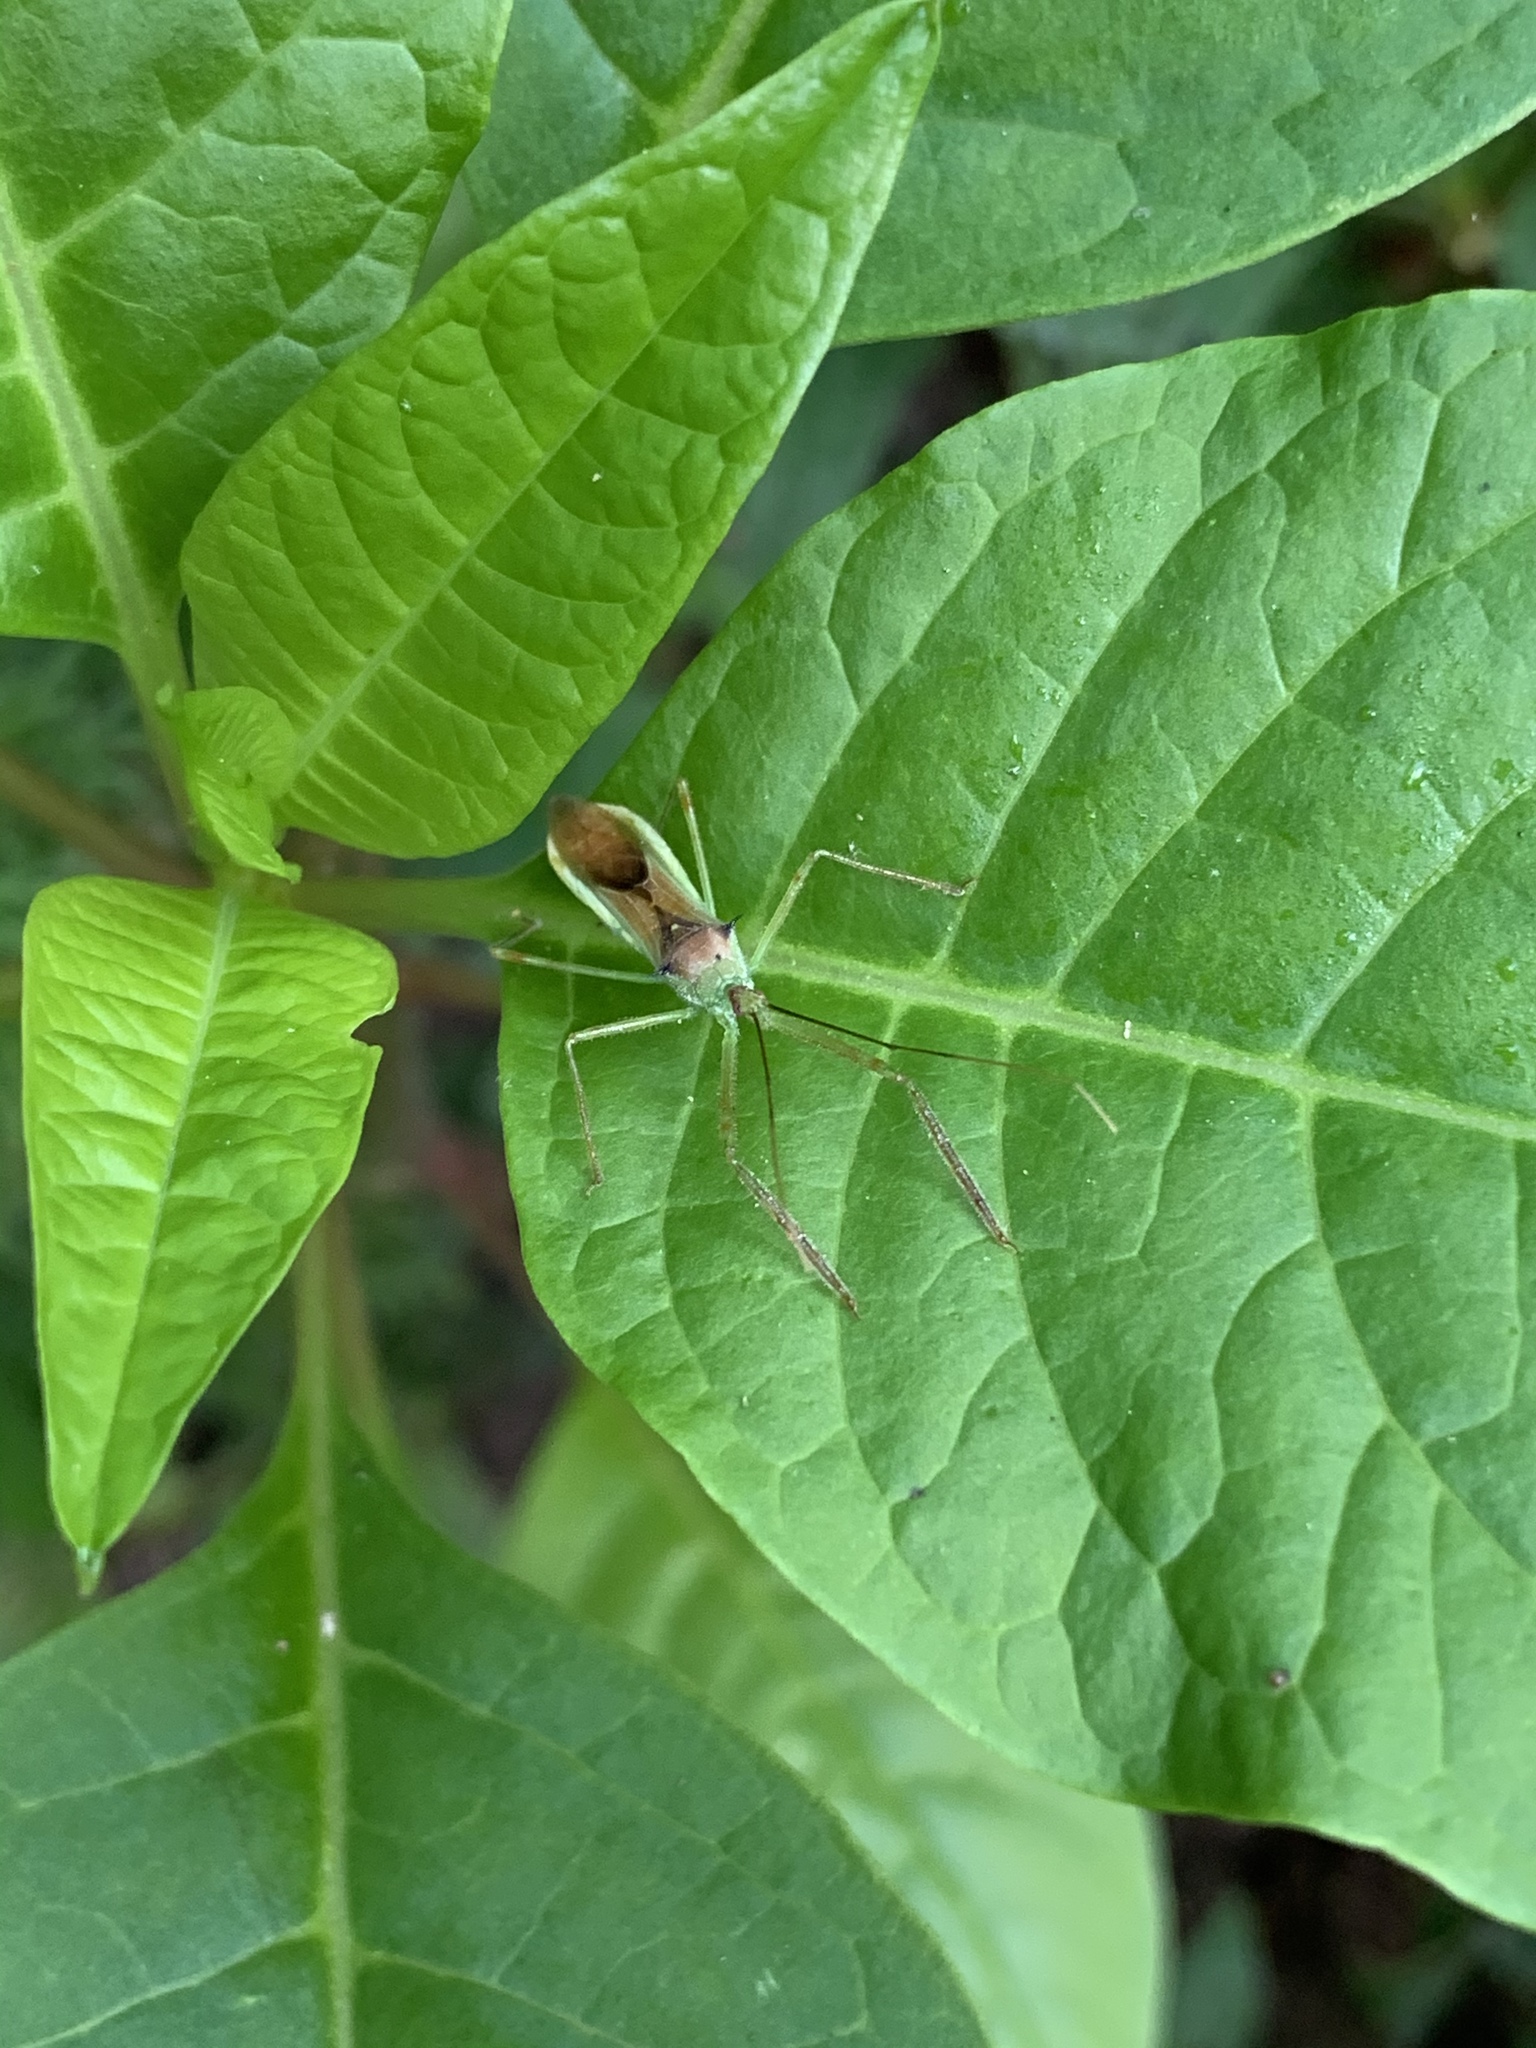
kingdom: Animalia
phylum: Arthropoda
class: Insecta
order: Hemiptera
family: Reduviidae
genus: Zelus
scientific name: Zelus luridus
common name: Pale green assassin bug
